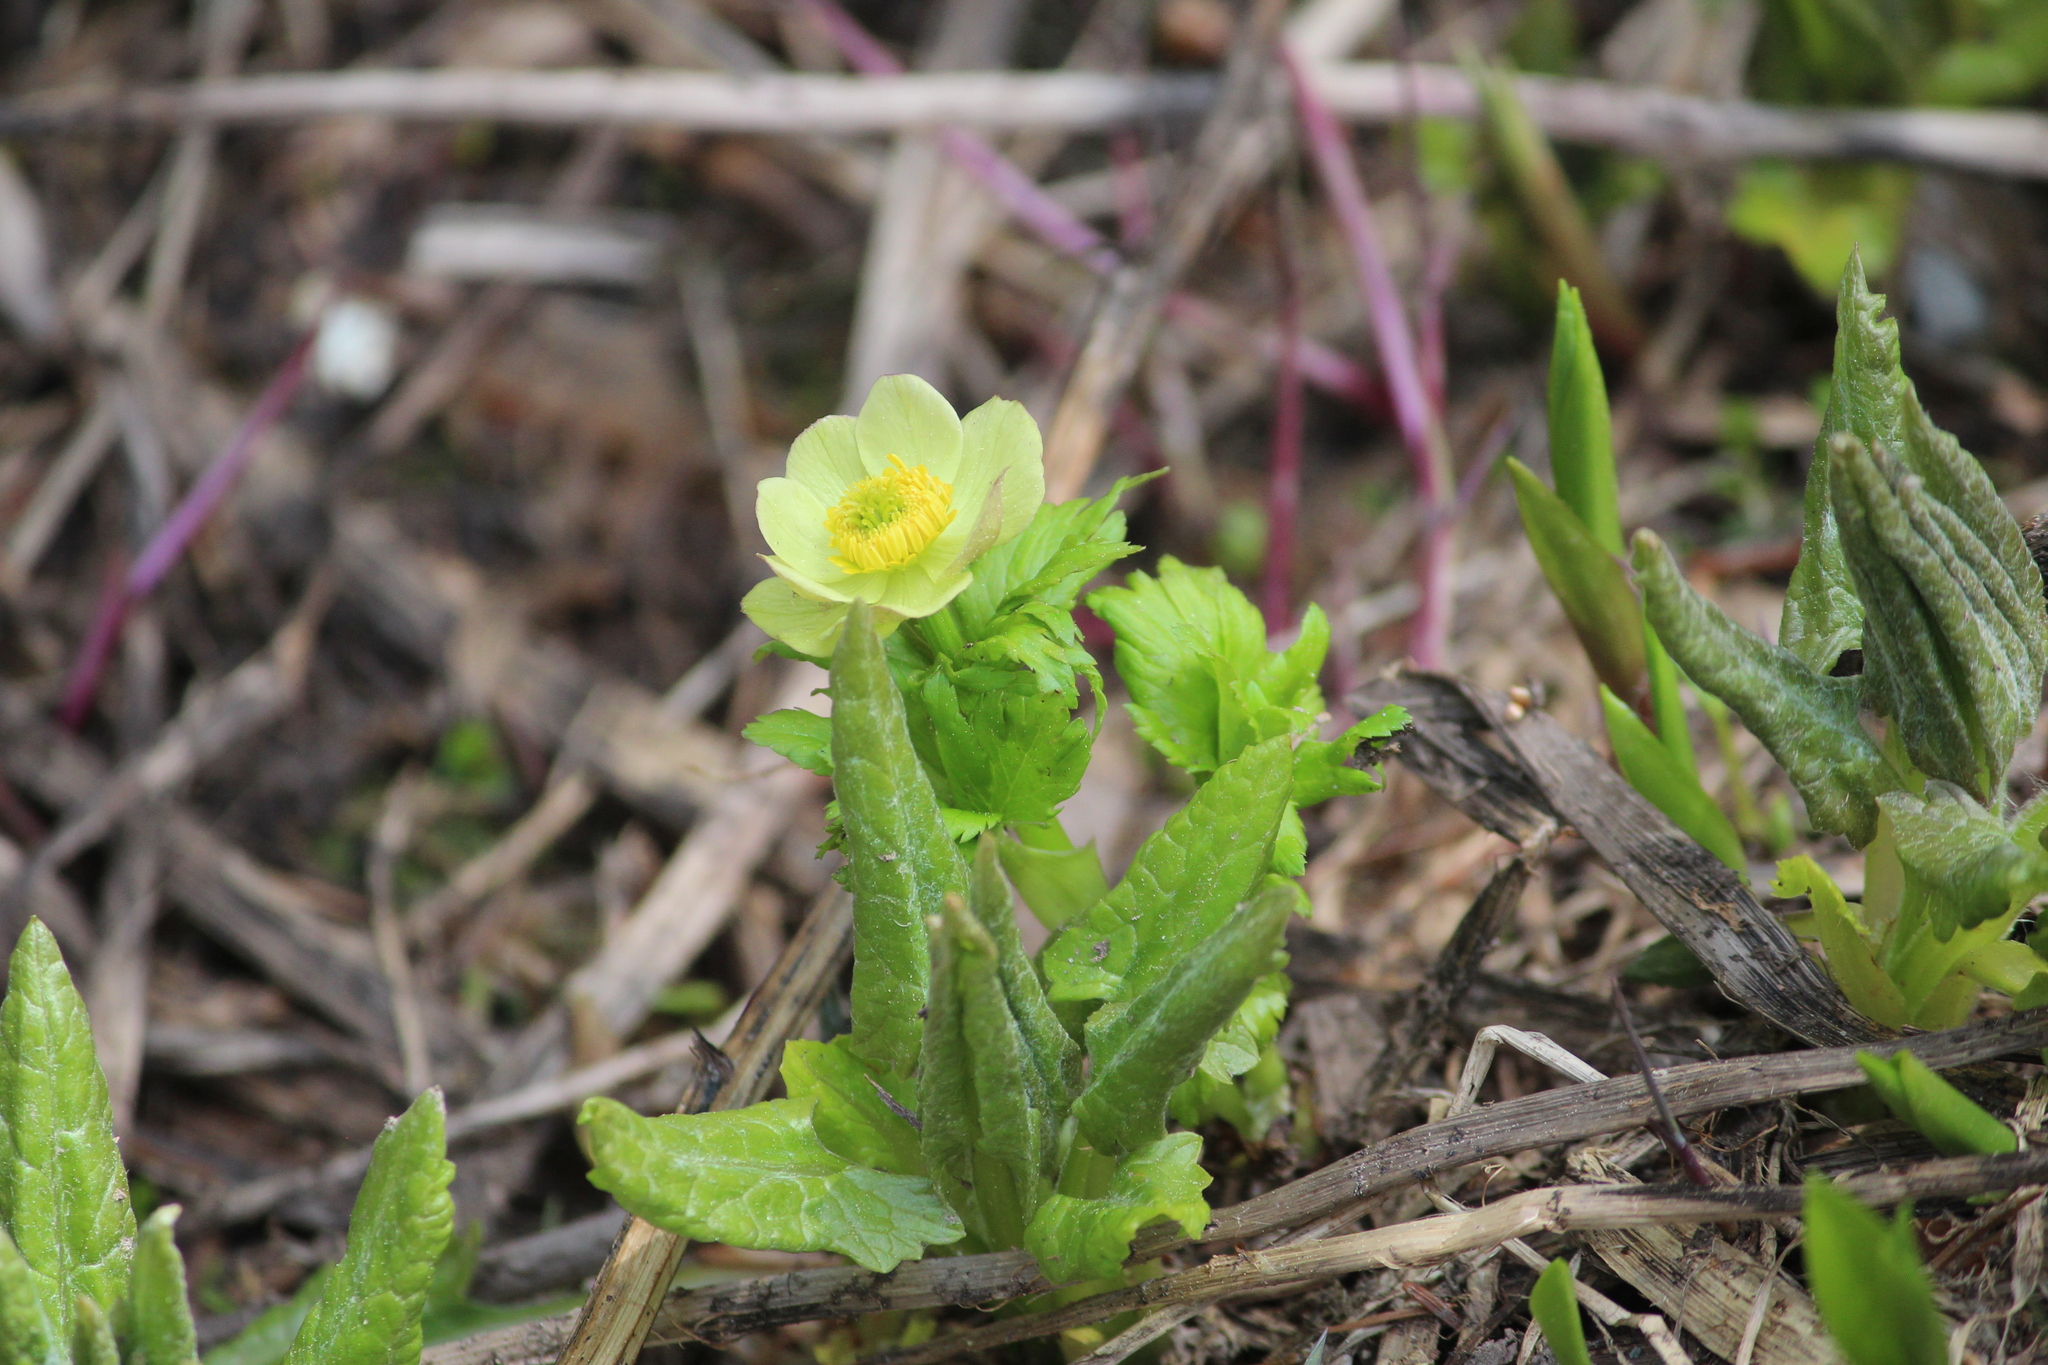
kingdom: Plantae
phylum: Tracheophyta
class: Magnoliopsida
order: Ranunculales
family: Ranunculaceae
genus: Trollius
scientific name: Trollius laxus
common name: American globeflower
